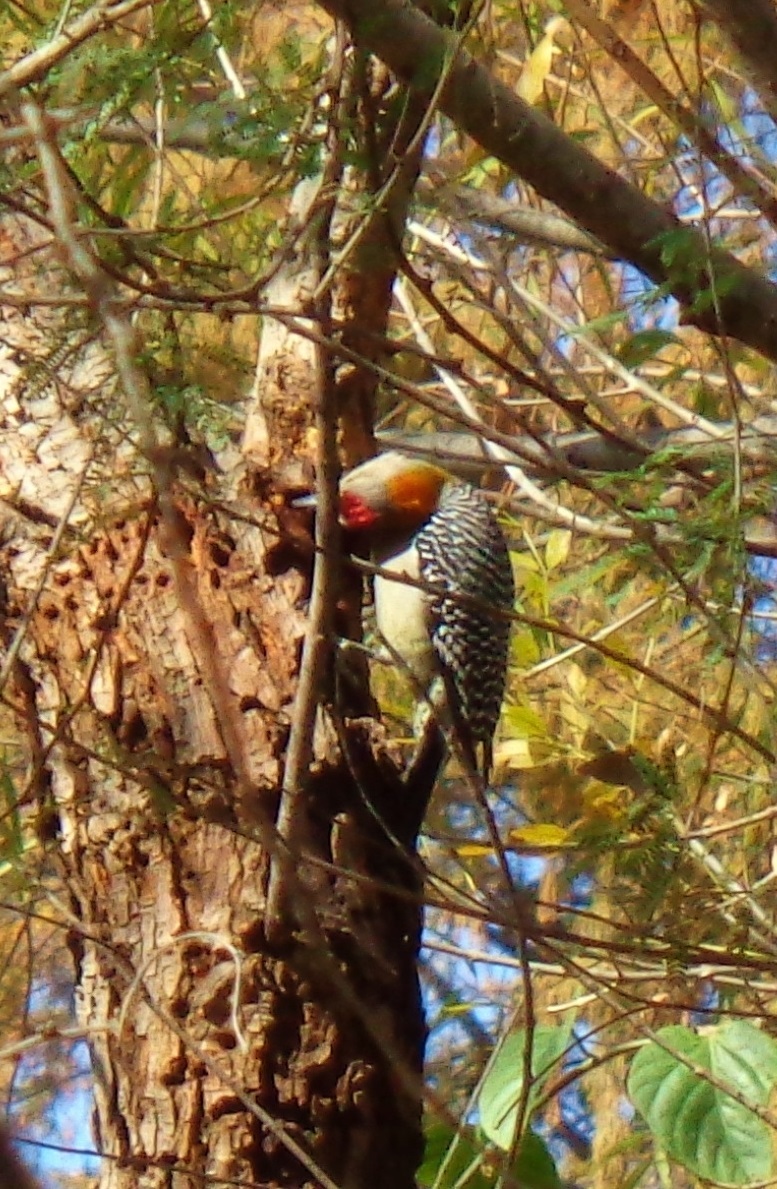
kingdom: Animalia
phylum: Chordata
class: Aves
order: Piciformes
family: Picidae
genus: Melanerpes
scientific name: Melanerpes aurifrons
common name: Golden-fronted woodpecker
